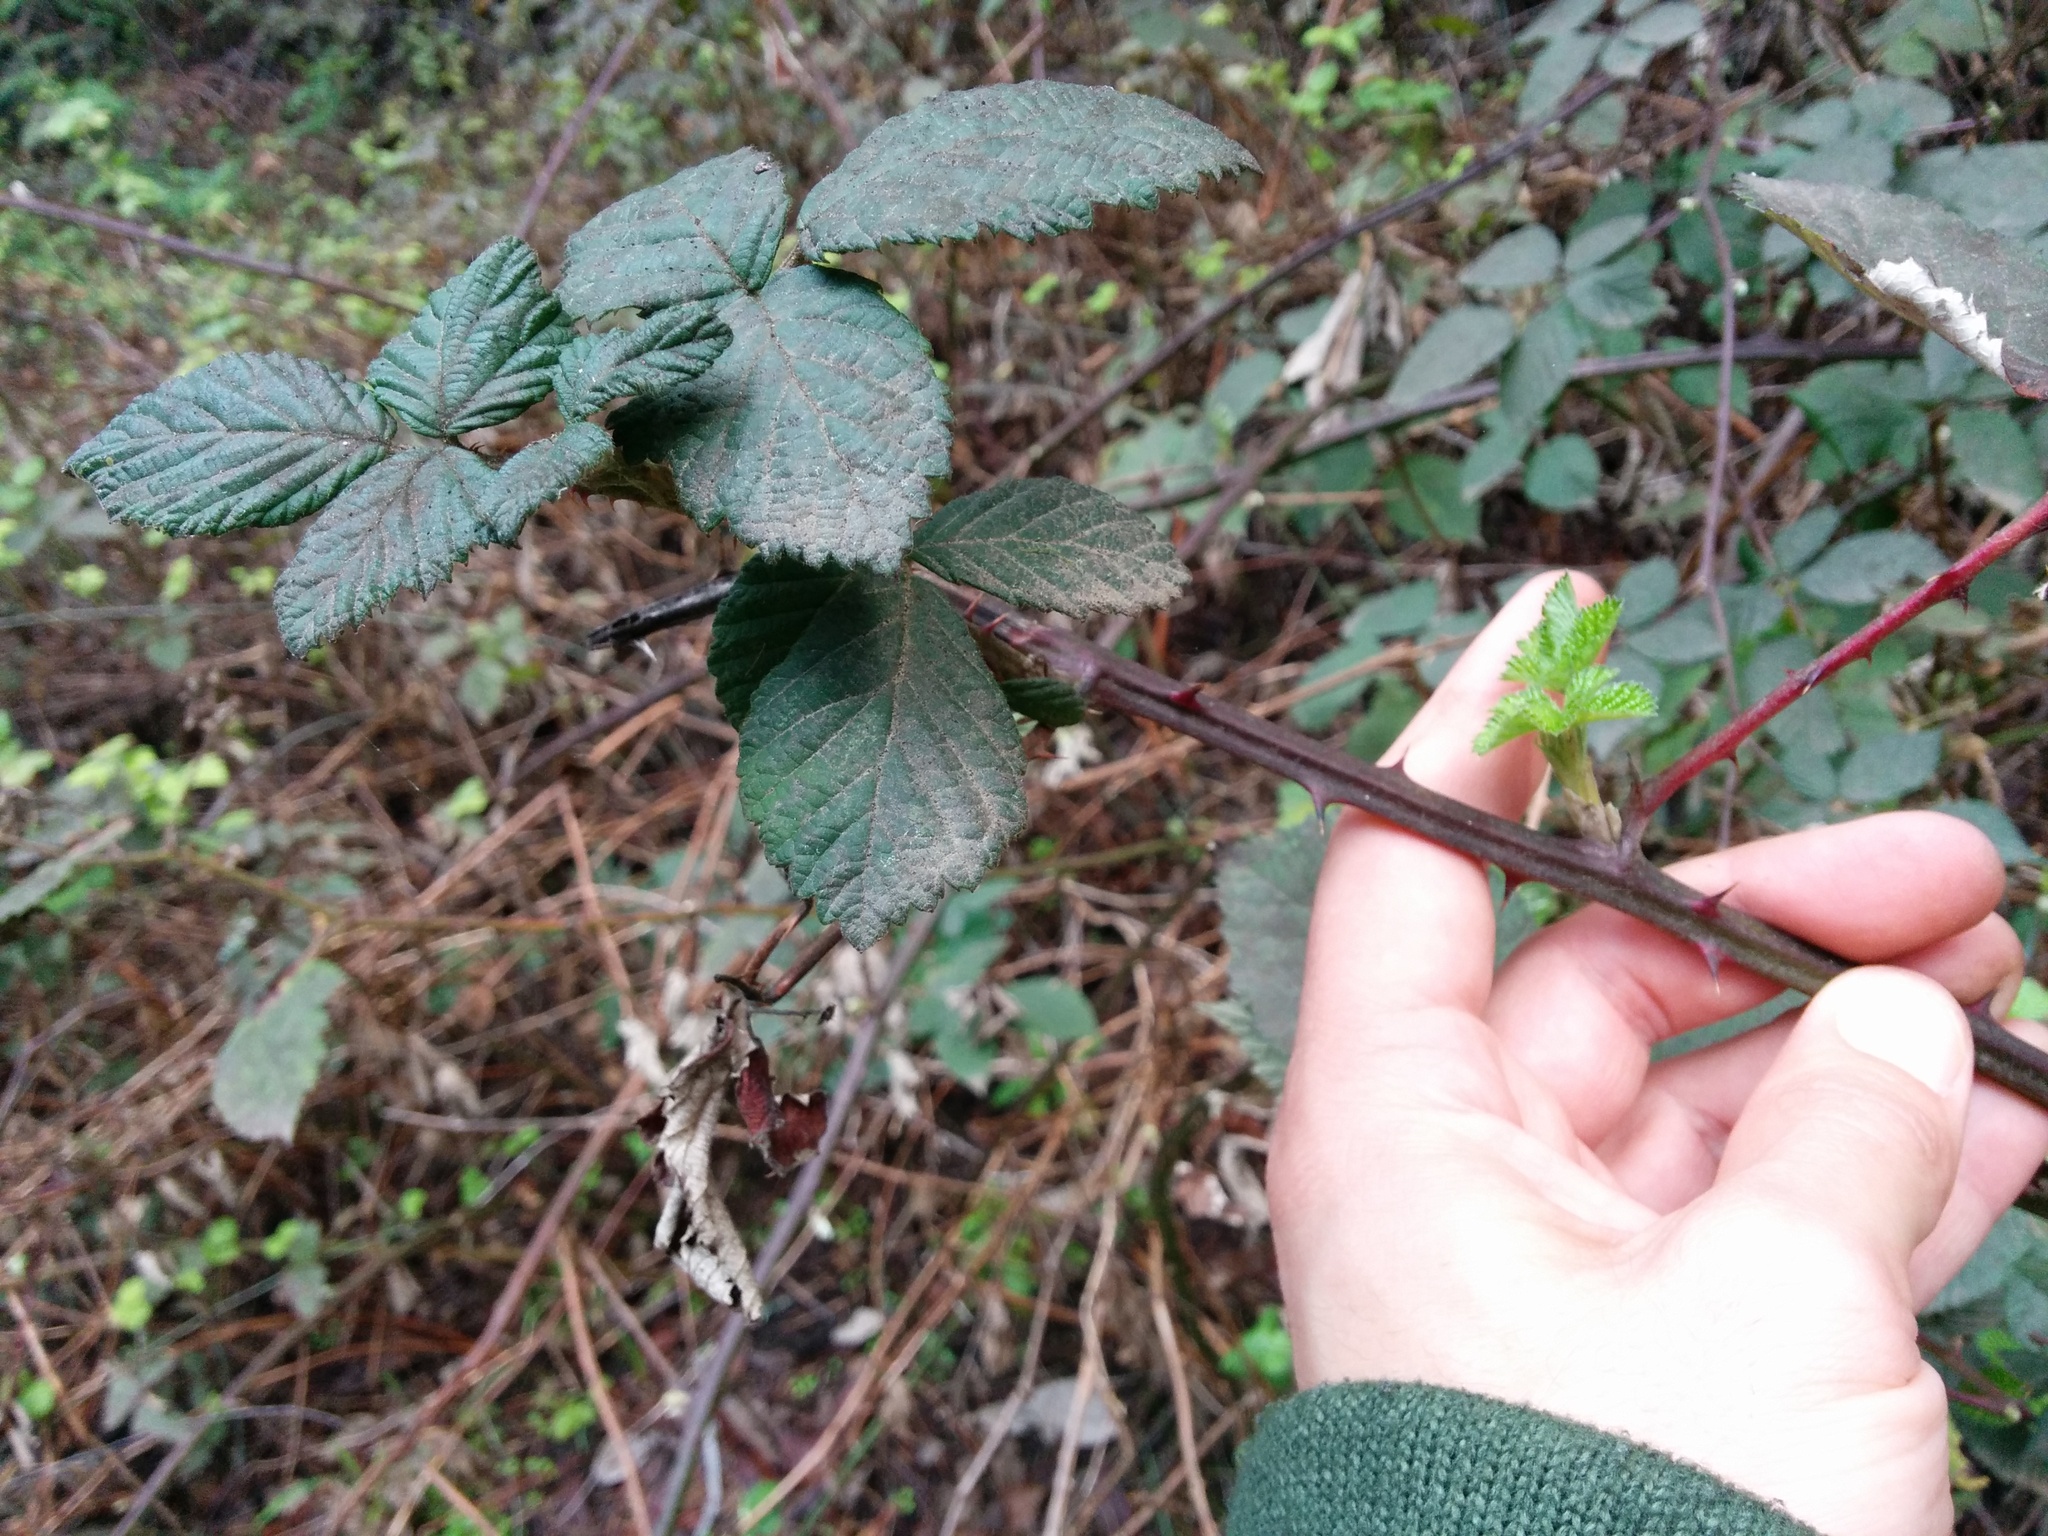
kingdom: Plantae
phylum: Tracheophyta
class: Magnoliopsida
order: Rosales
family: Rosaceae
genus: Rubus
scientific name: Rubus armeniacus
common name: Himalayan blackberry
